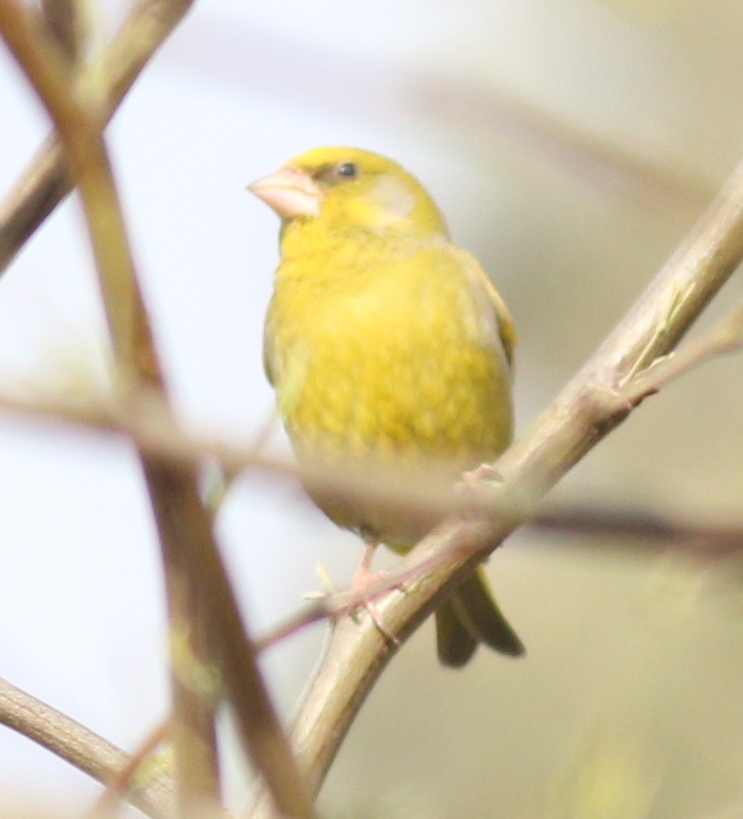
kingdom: Plantae
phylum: Tracheophyta
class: Liliopsida
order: Poales
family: Poaceae
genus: Chloris
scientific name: Chloris chloris
